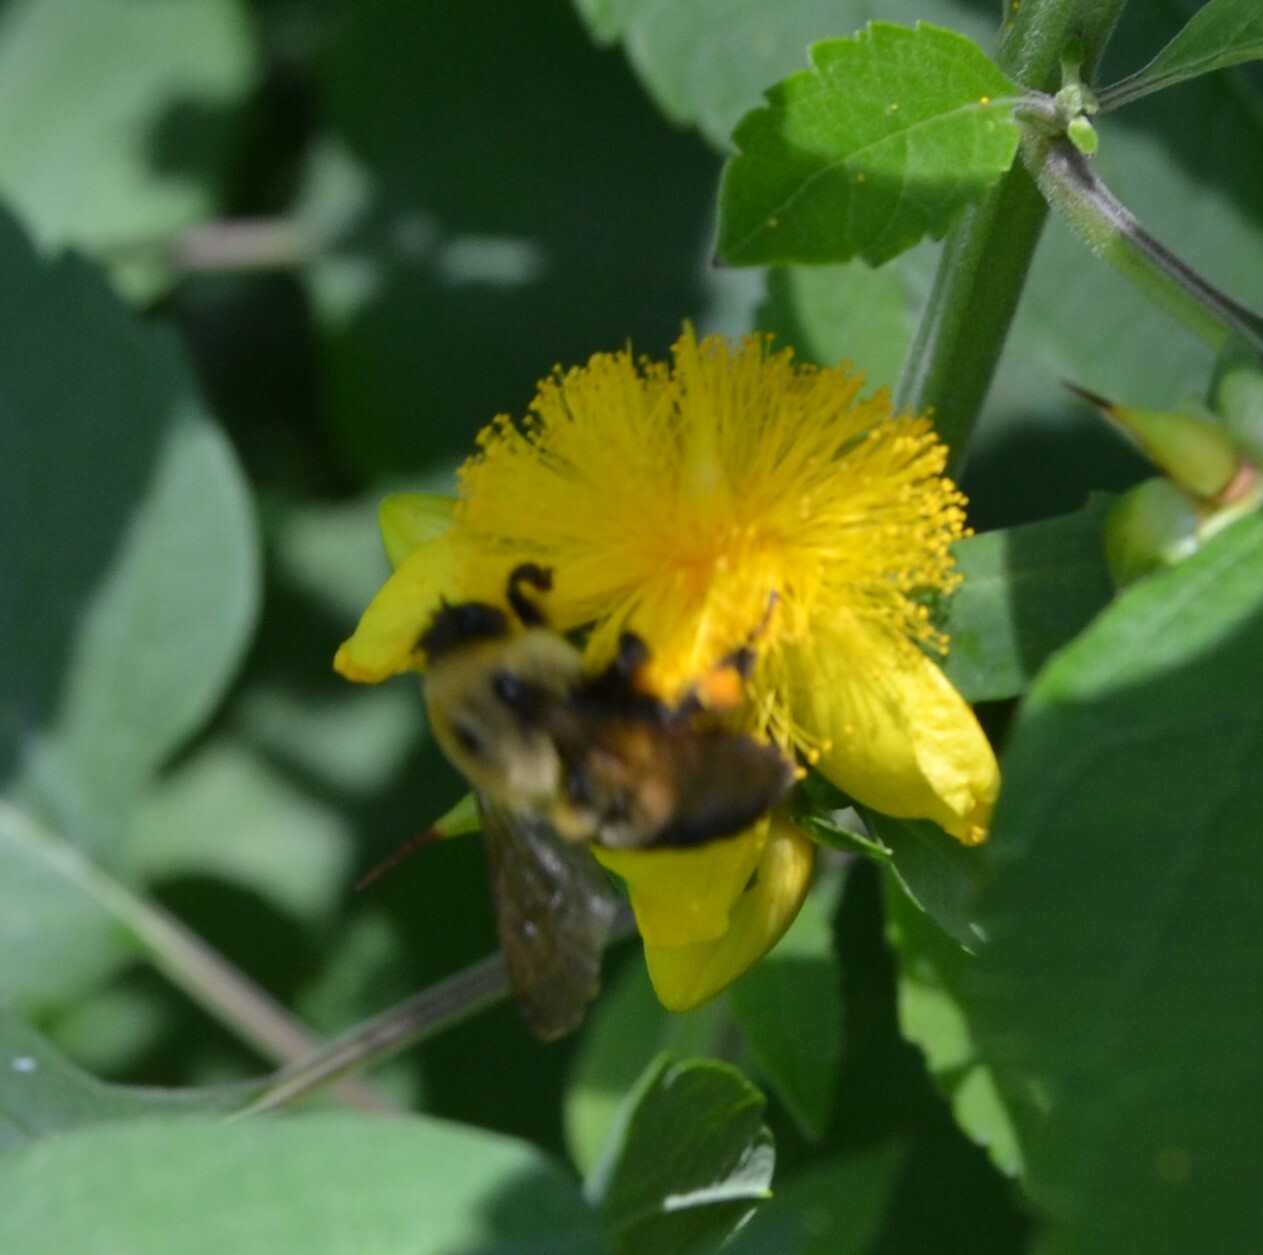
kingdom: Animalia
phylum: Arthropoda
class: Insecta
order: Hymenoptera
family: Apidae
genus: Bombus
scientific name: Bombus griseocollis
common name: Brown-belted bumble bee
